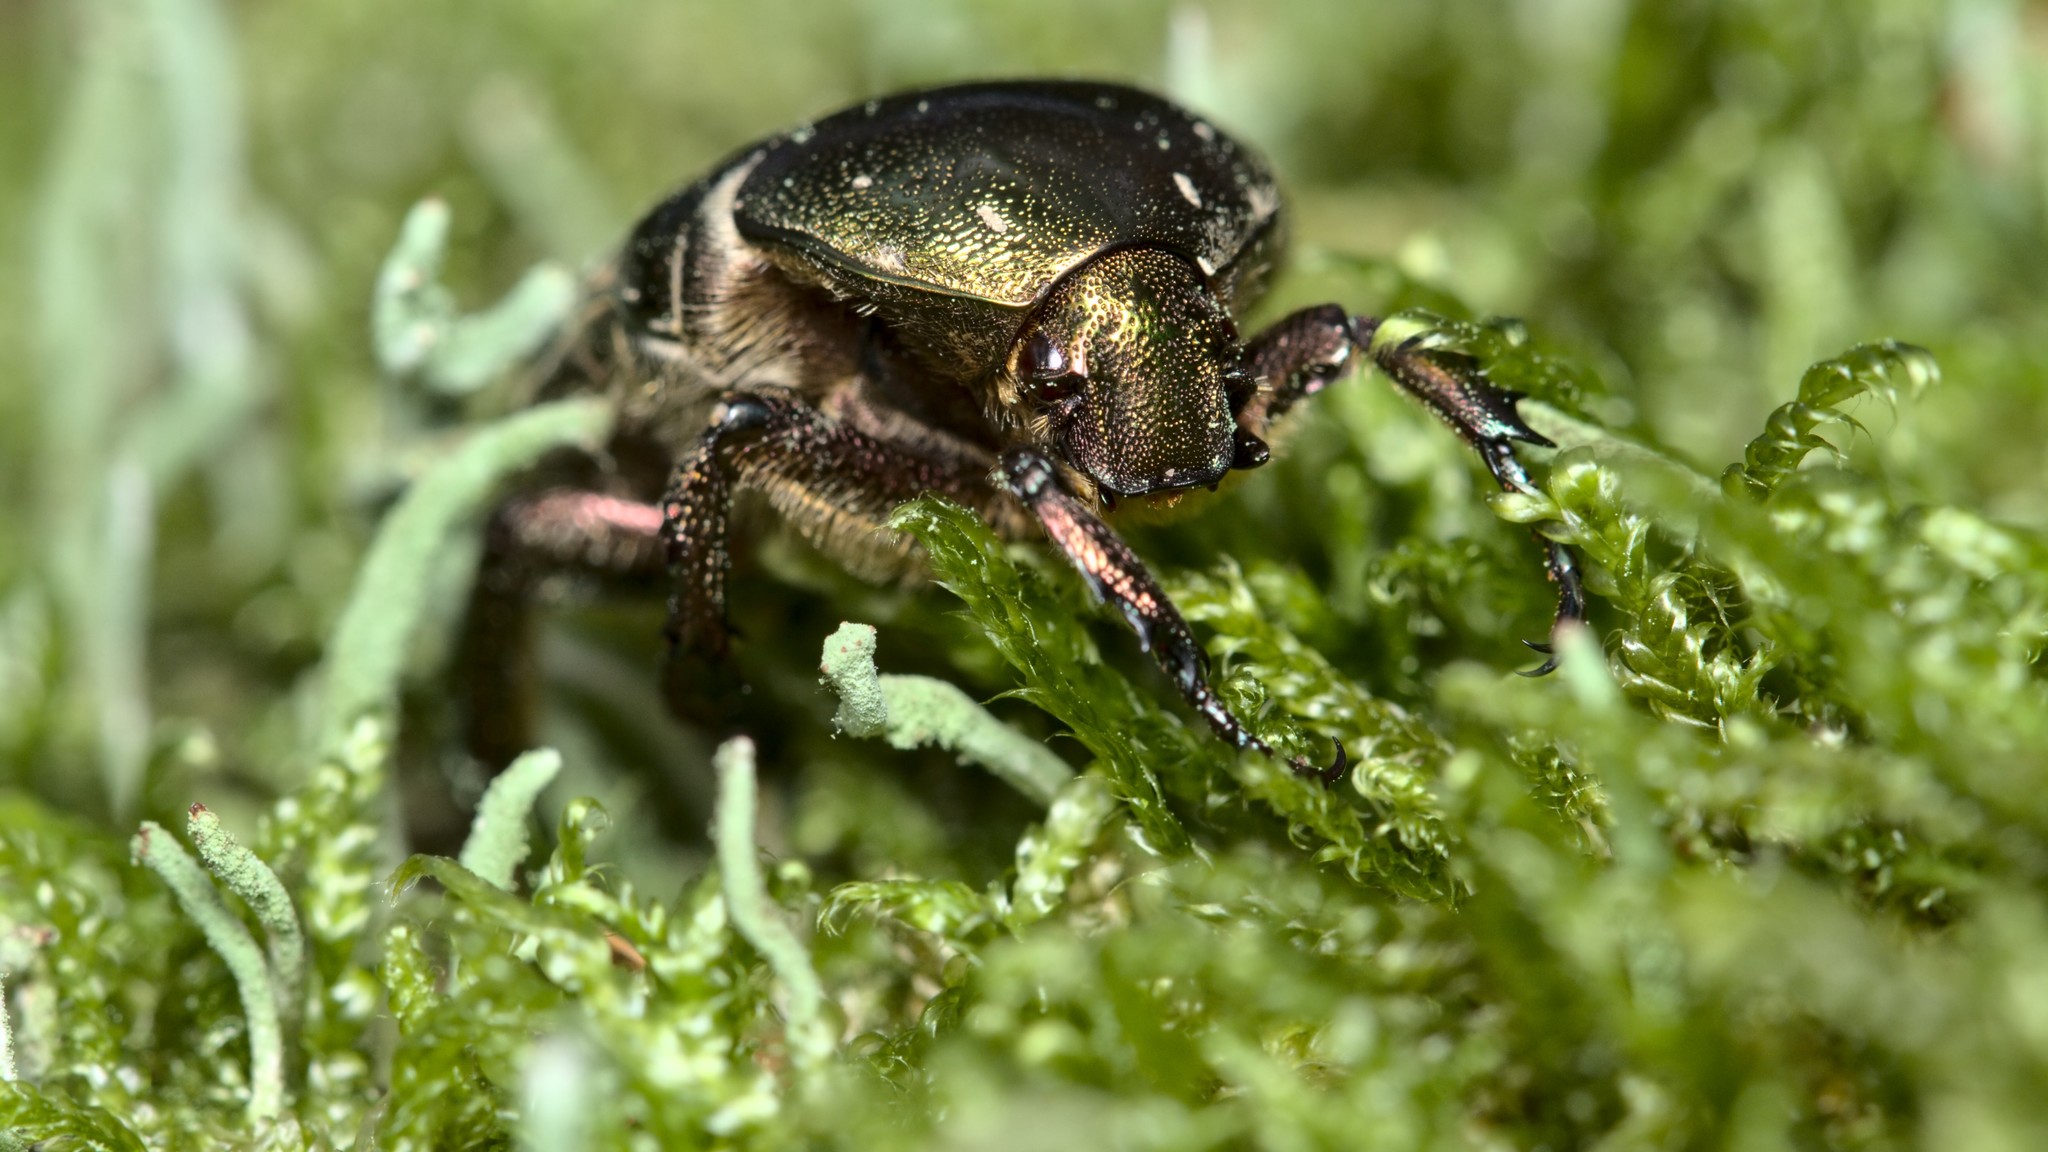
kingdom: Animalia
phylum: Arthropoda
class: Insecta
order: Coleoptera
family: Scarabaeidae
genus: Protaetia
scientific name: Protaetia cuprea
